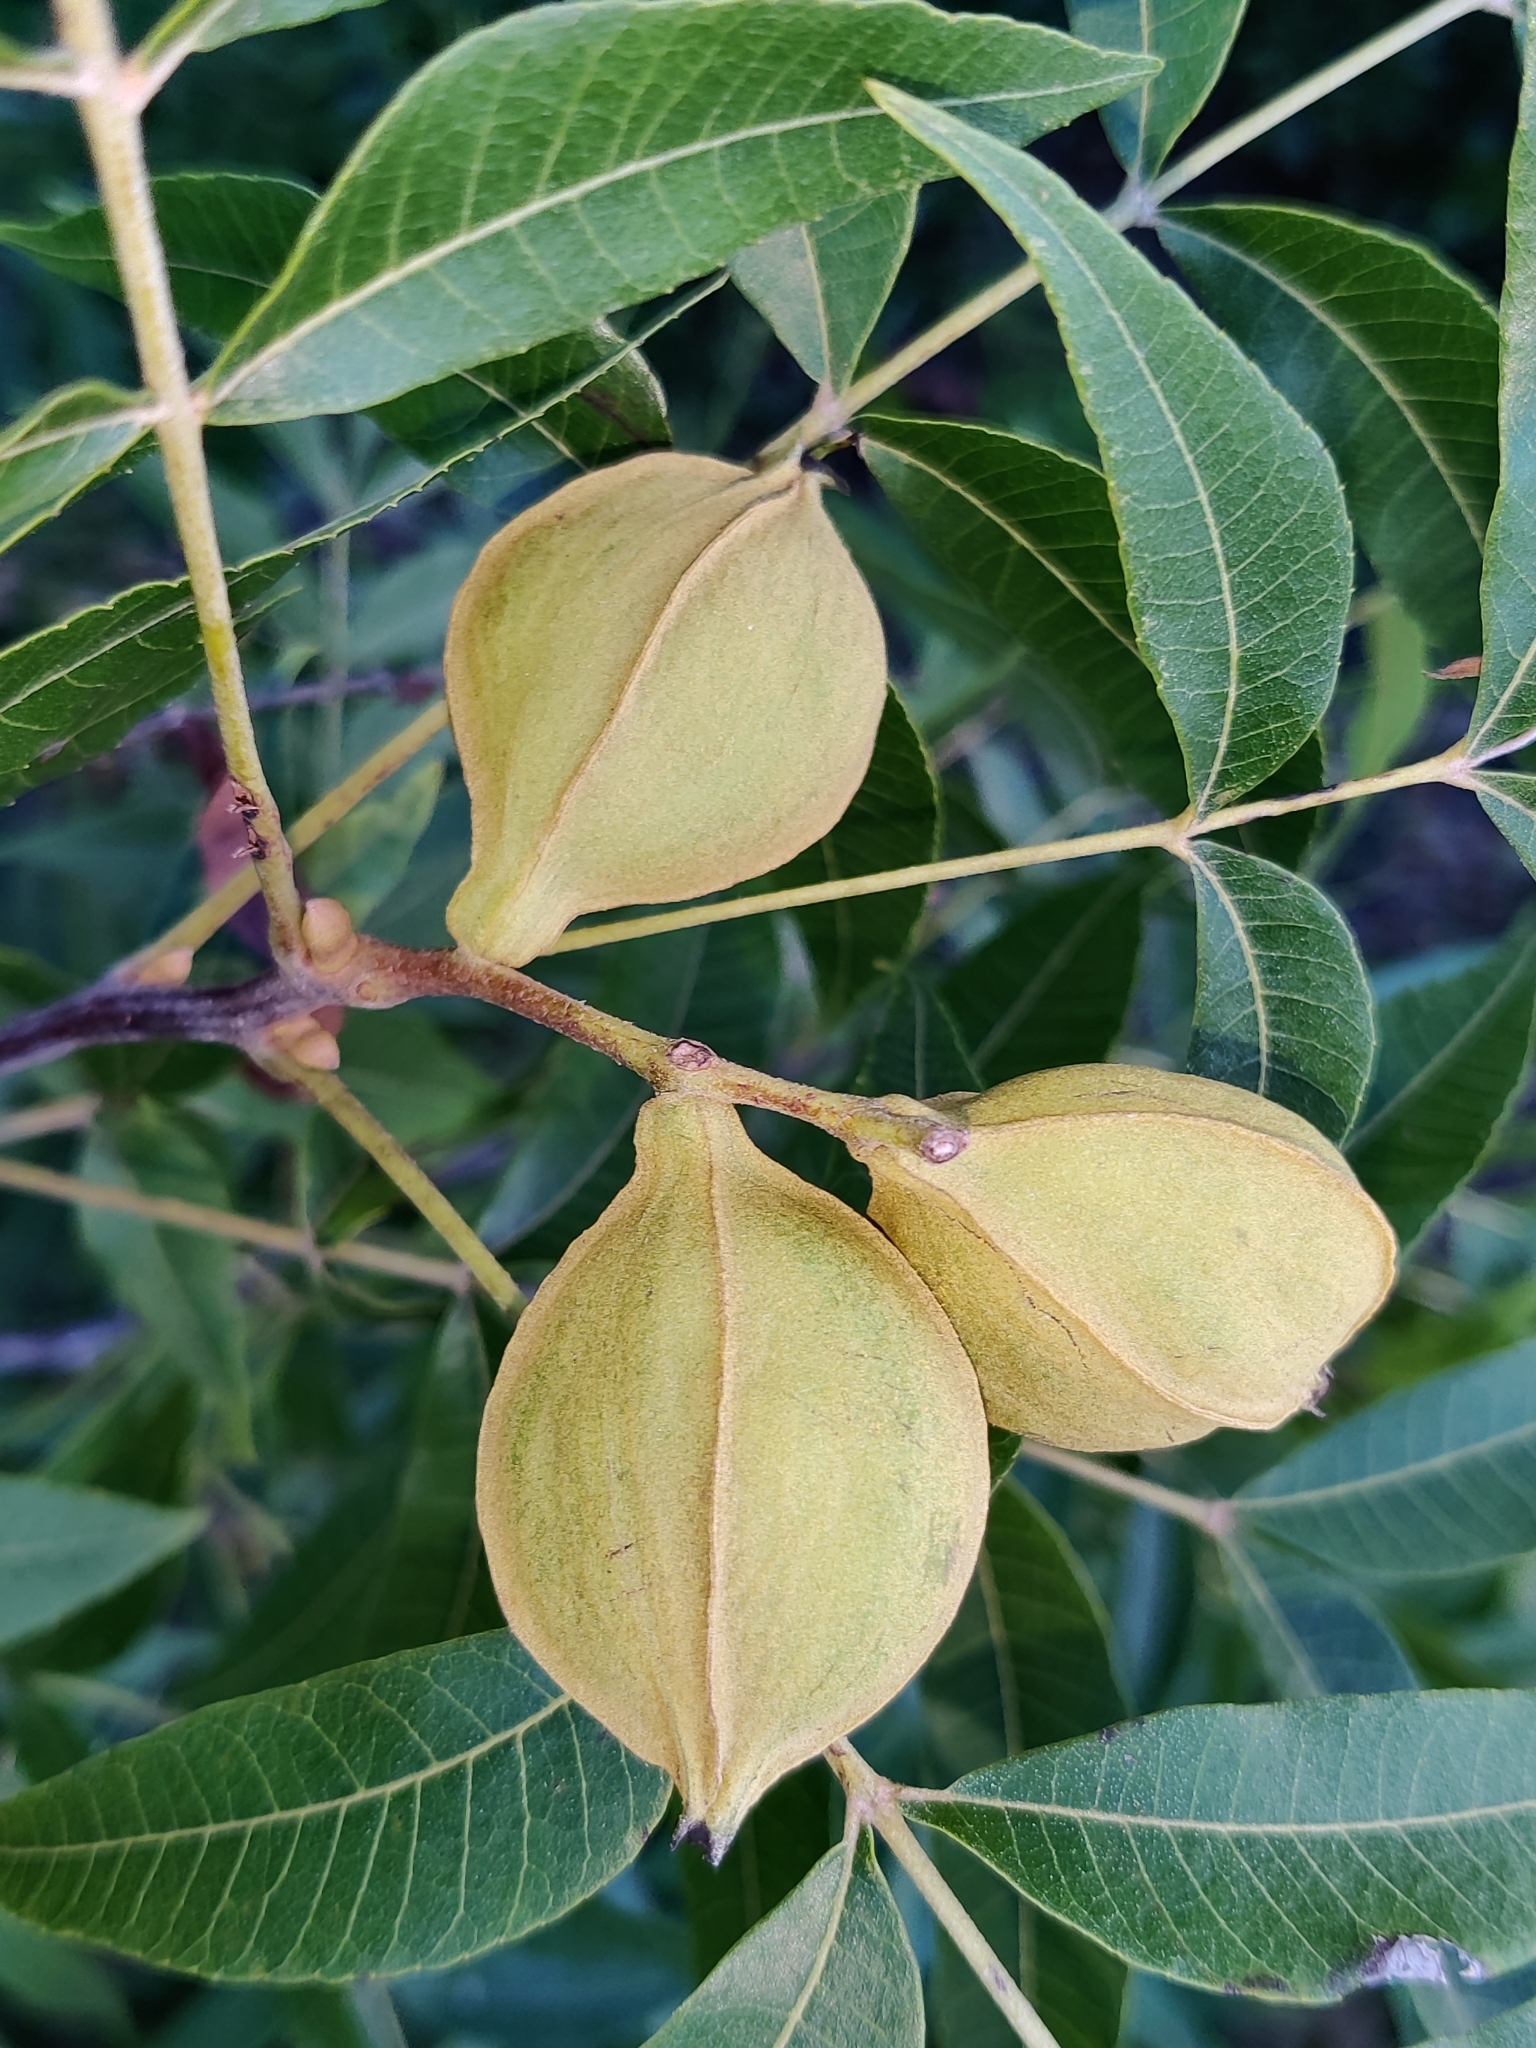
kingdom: Plantae
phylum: Tracheophyta
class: Magnoliopsida
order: Fagales
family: Juglandaceae
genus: Carya
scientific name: Carya aquatica
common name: Water hickory
